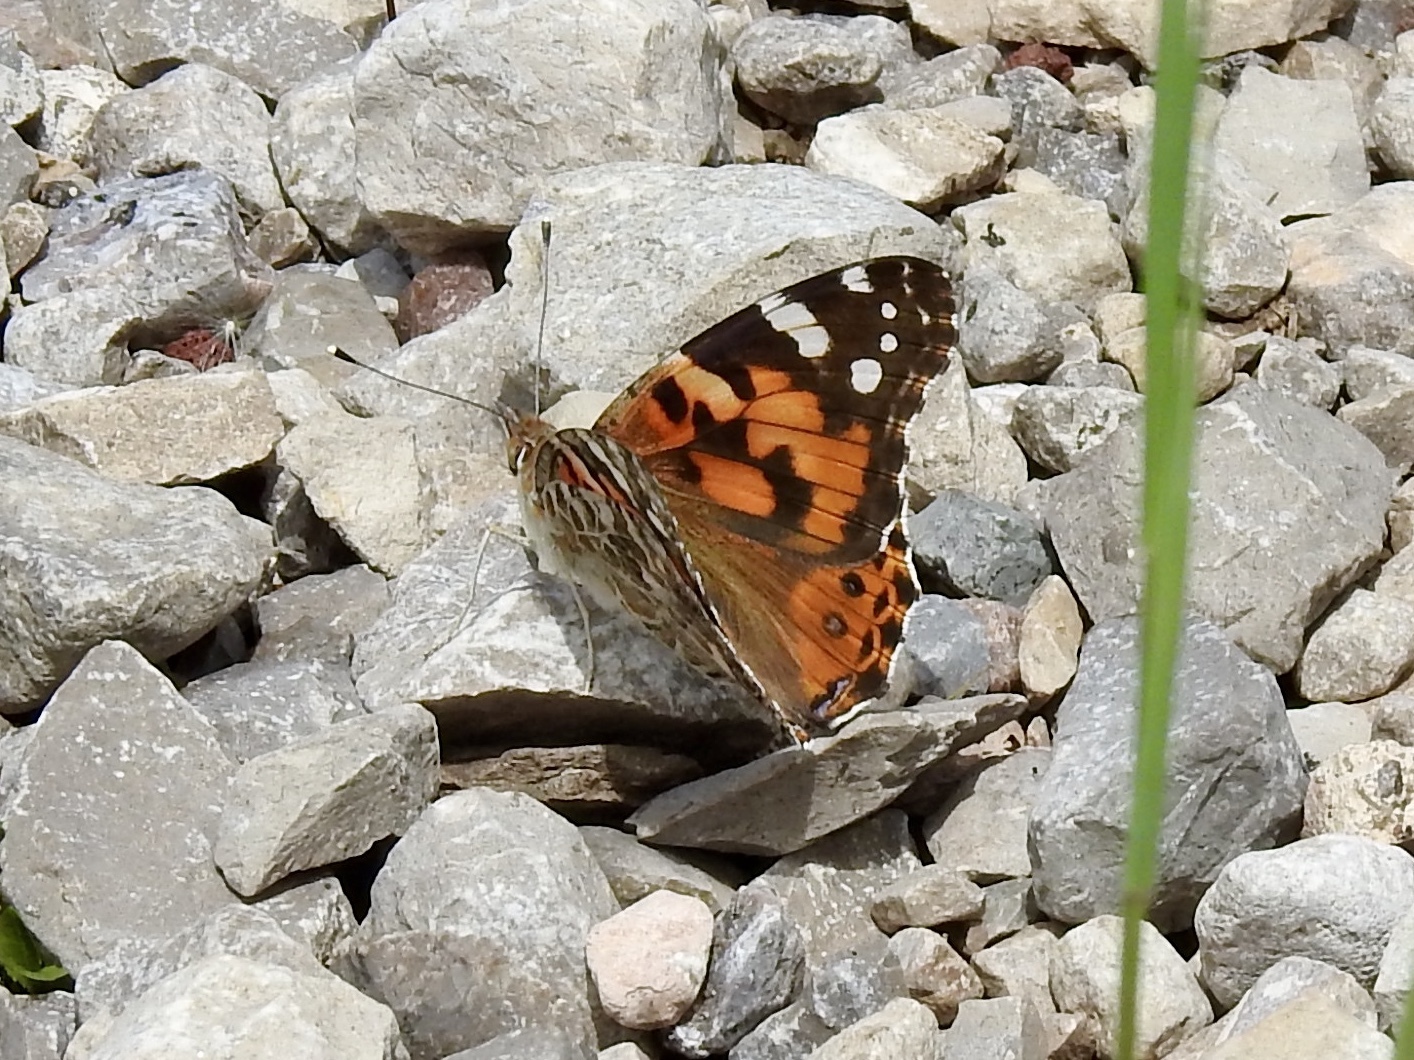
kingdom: Animalia
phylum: Arthropoda
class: Insecta
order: Lepidoptera
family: Nymphalidae
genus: Vanessa
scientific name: Vanessa cardui
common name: Painted lady
